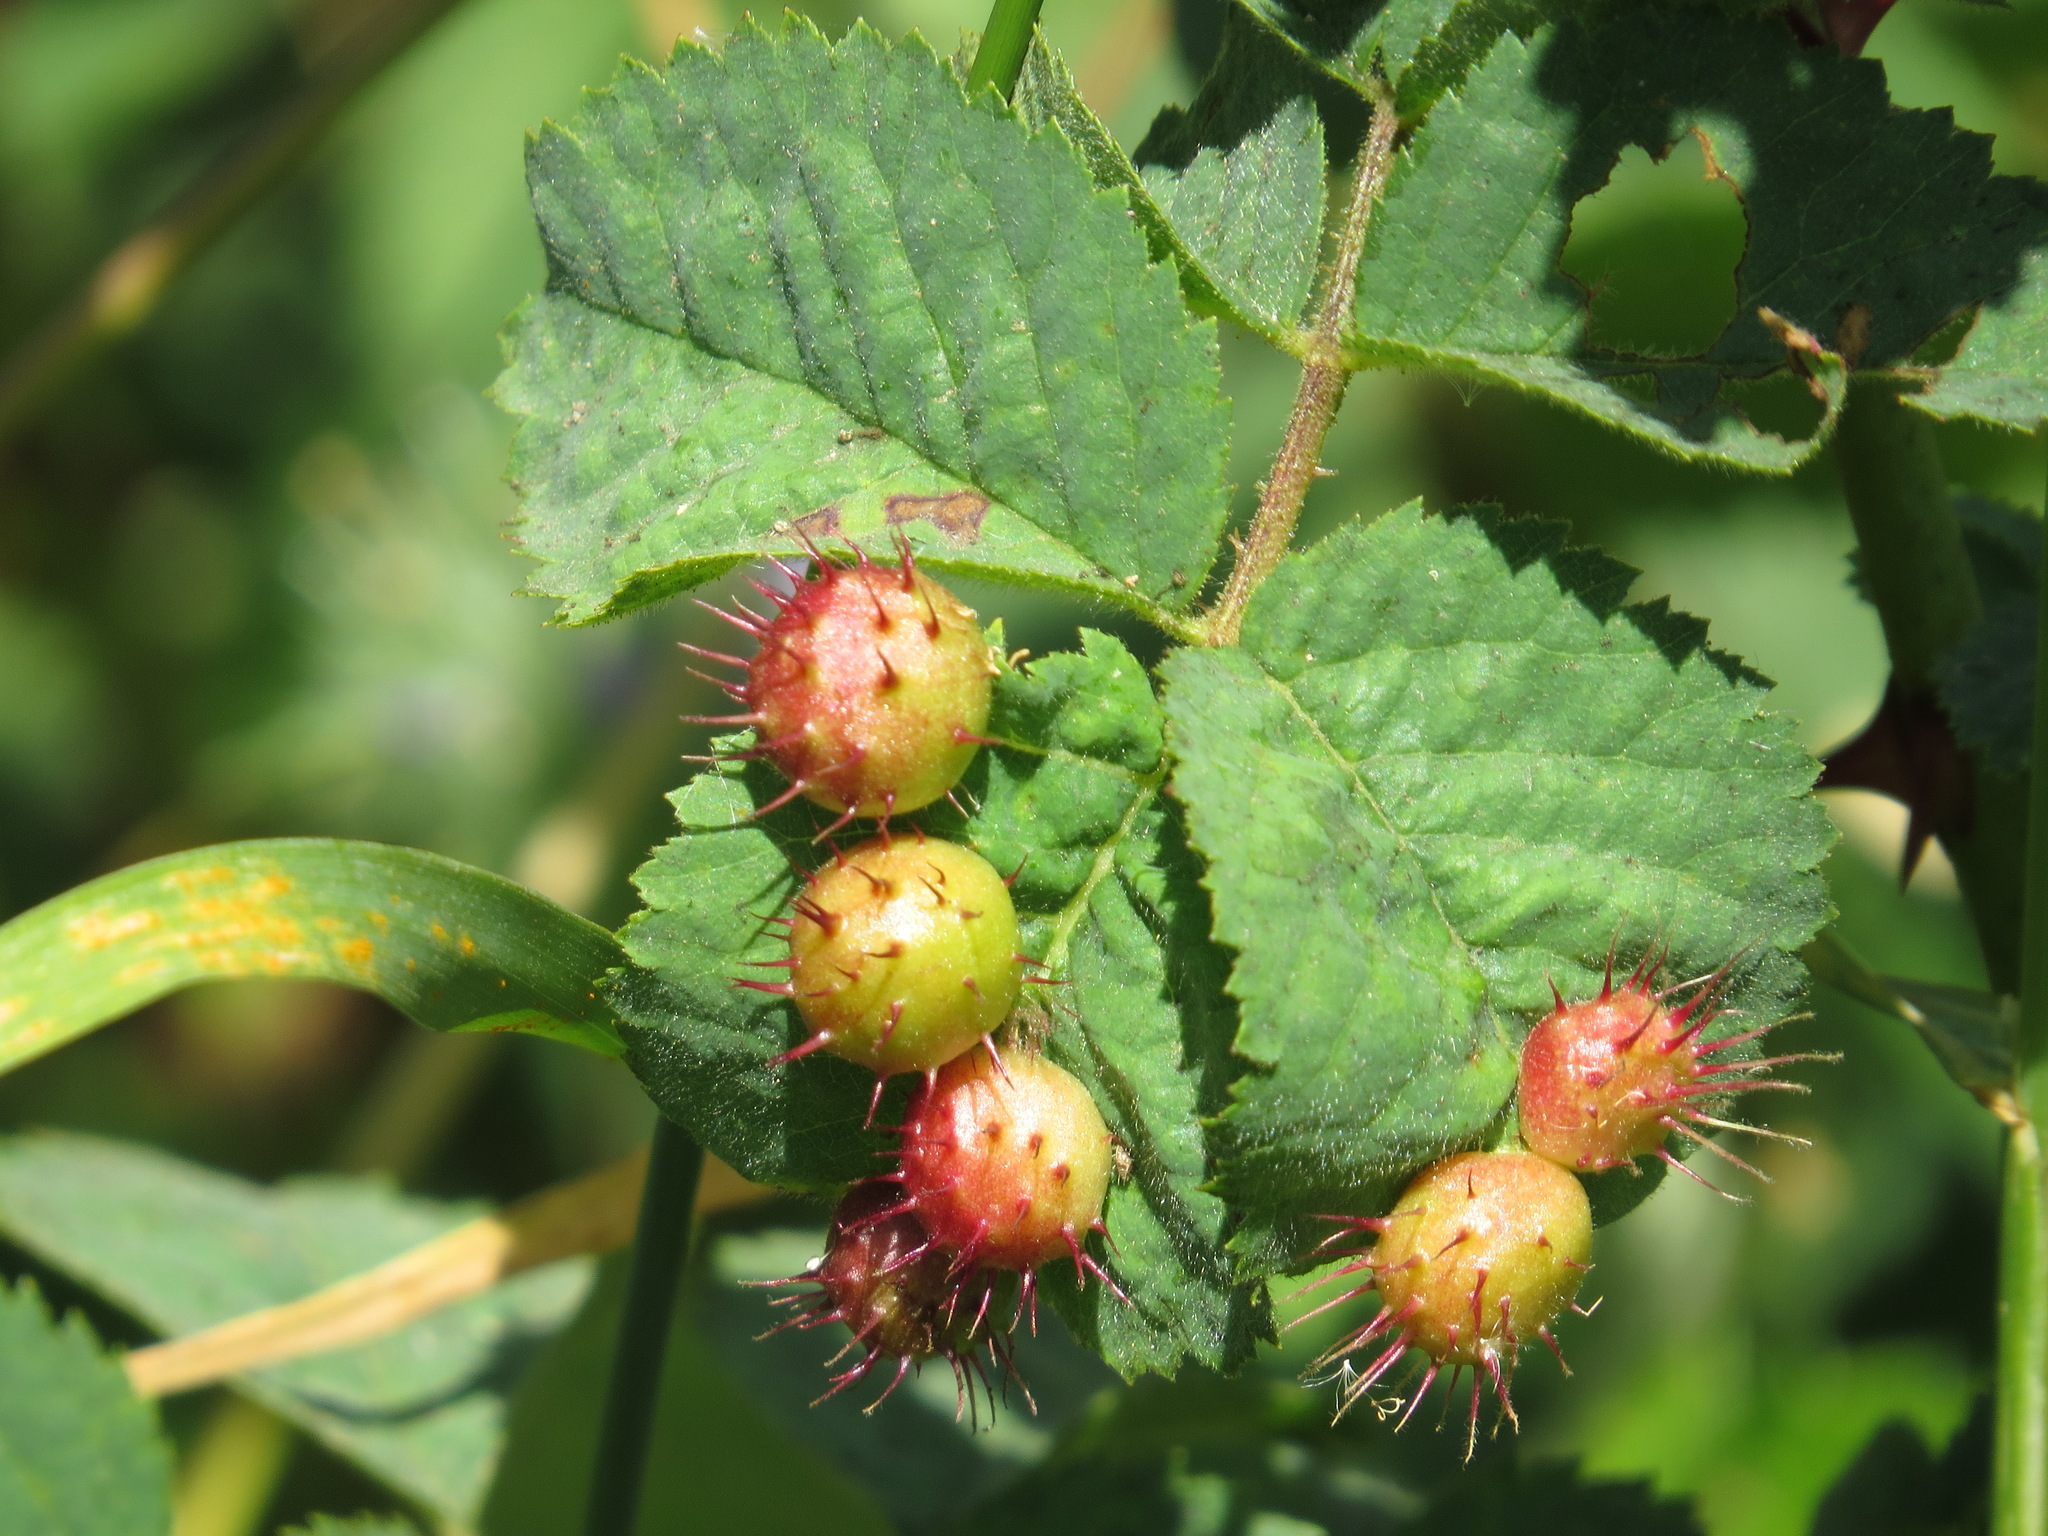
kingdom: Animalia
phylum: Arthropoda
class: Insecta
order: Hymenoptera
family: Cynipidae
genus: Diplolepis
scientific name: Diplolepis polita
